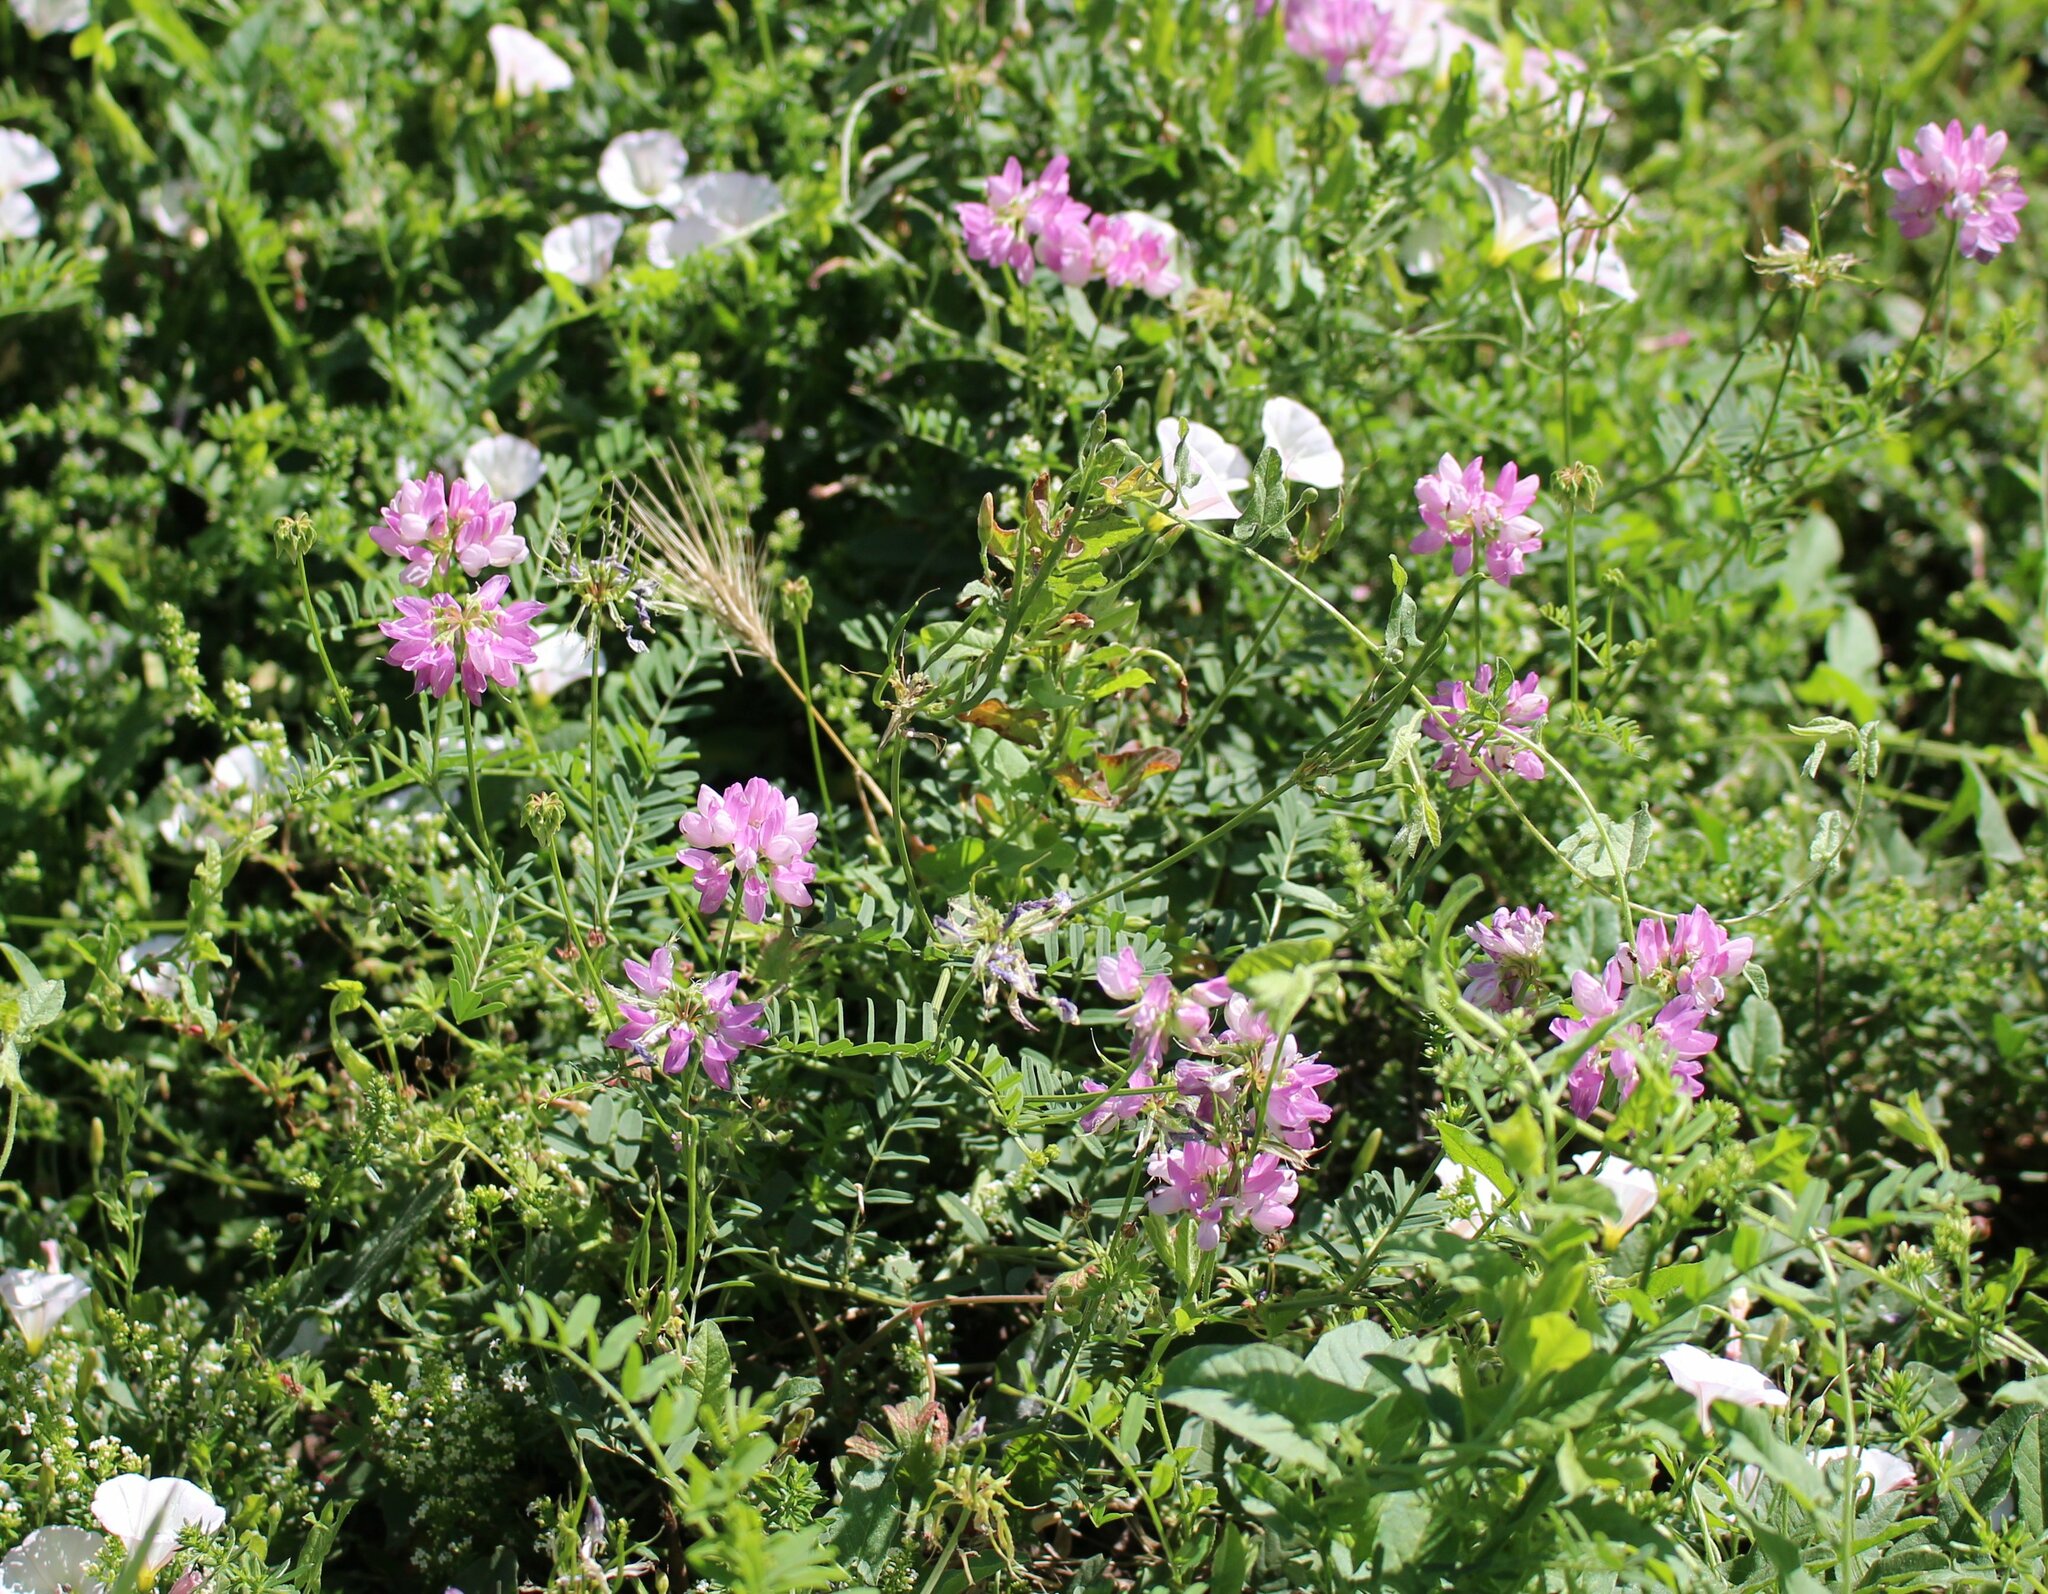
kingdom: Plantae
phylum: Tracheophyta
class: Magnoliopsida
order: Fabales
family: Fabaceae
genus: Coronilla
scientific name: Coronilla varia
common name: Crownvetch
